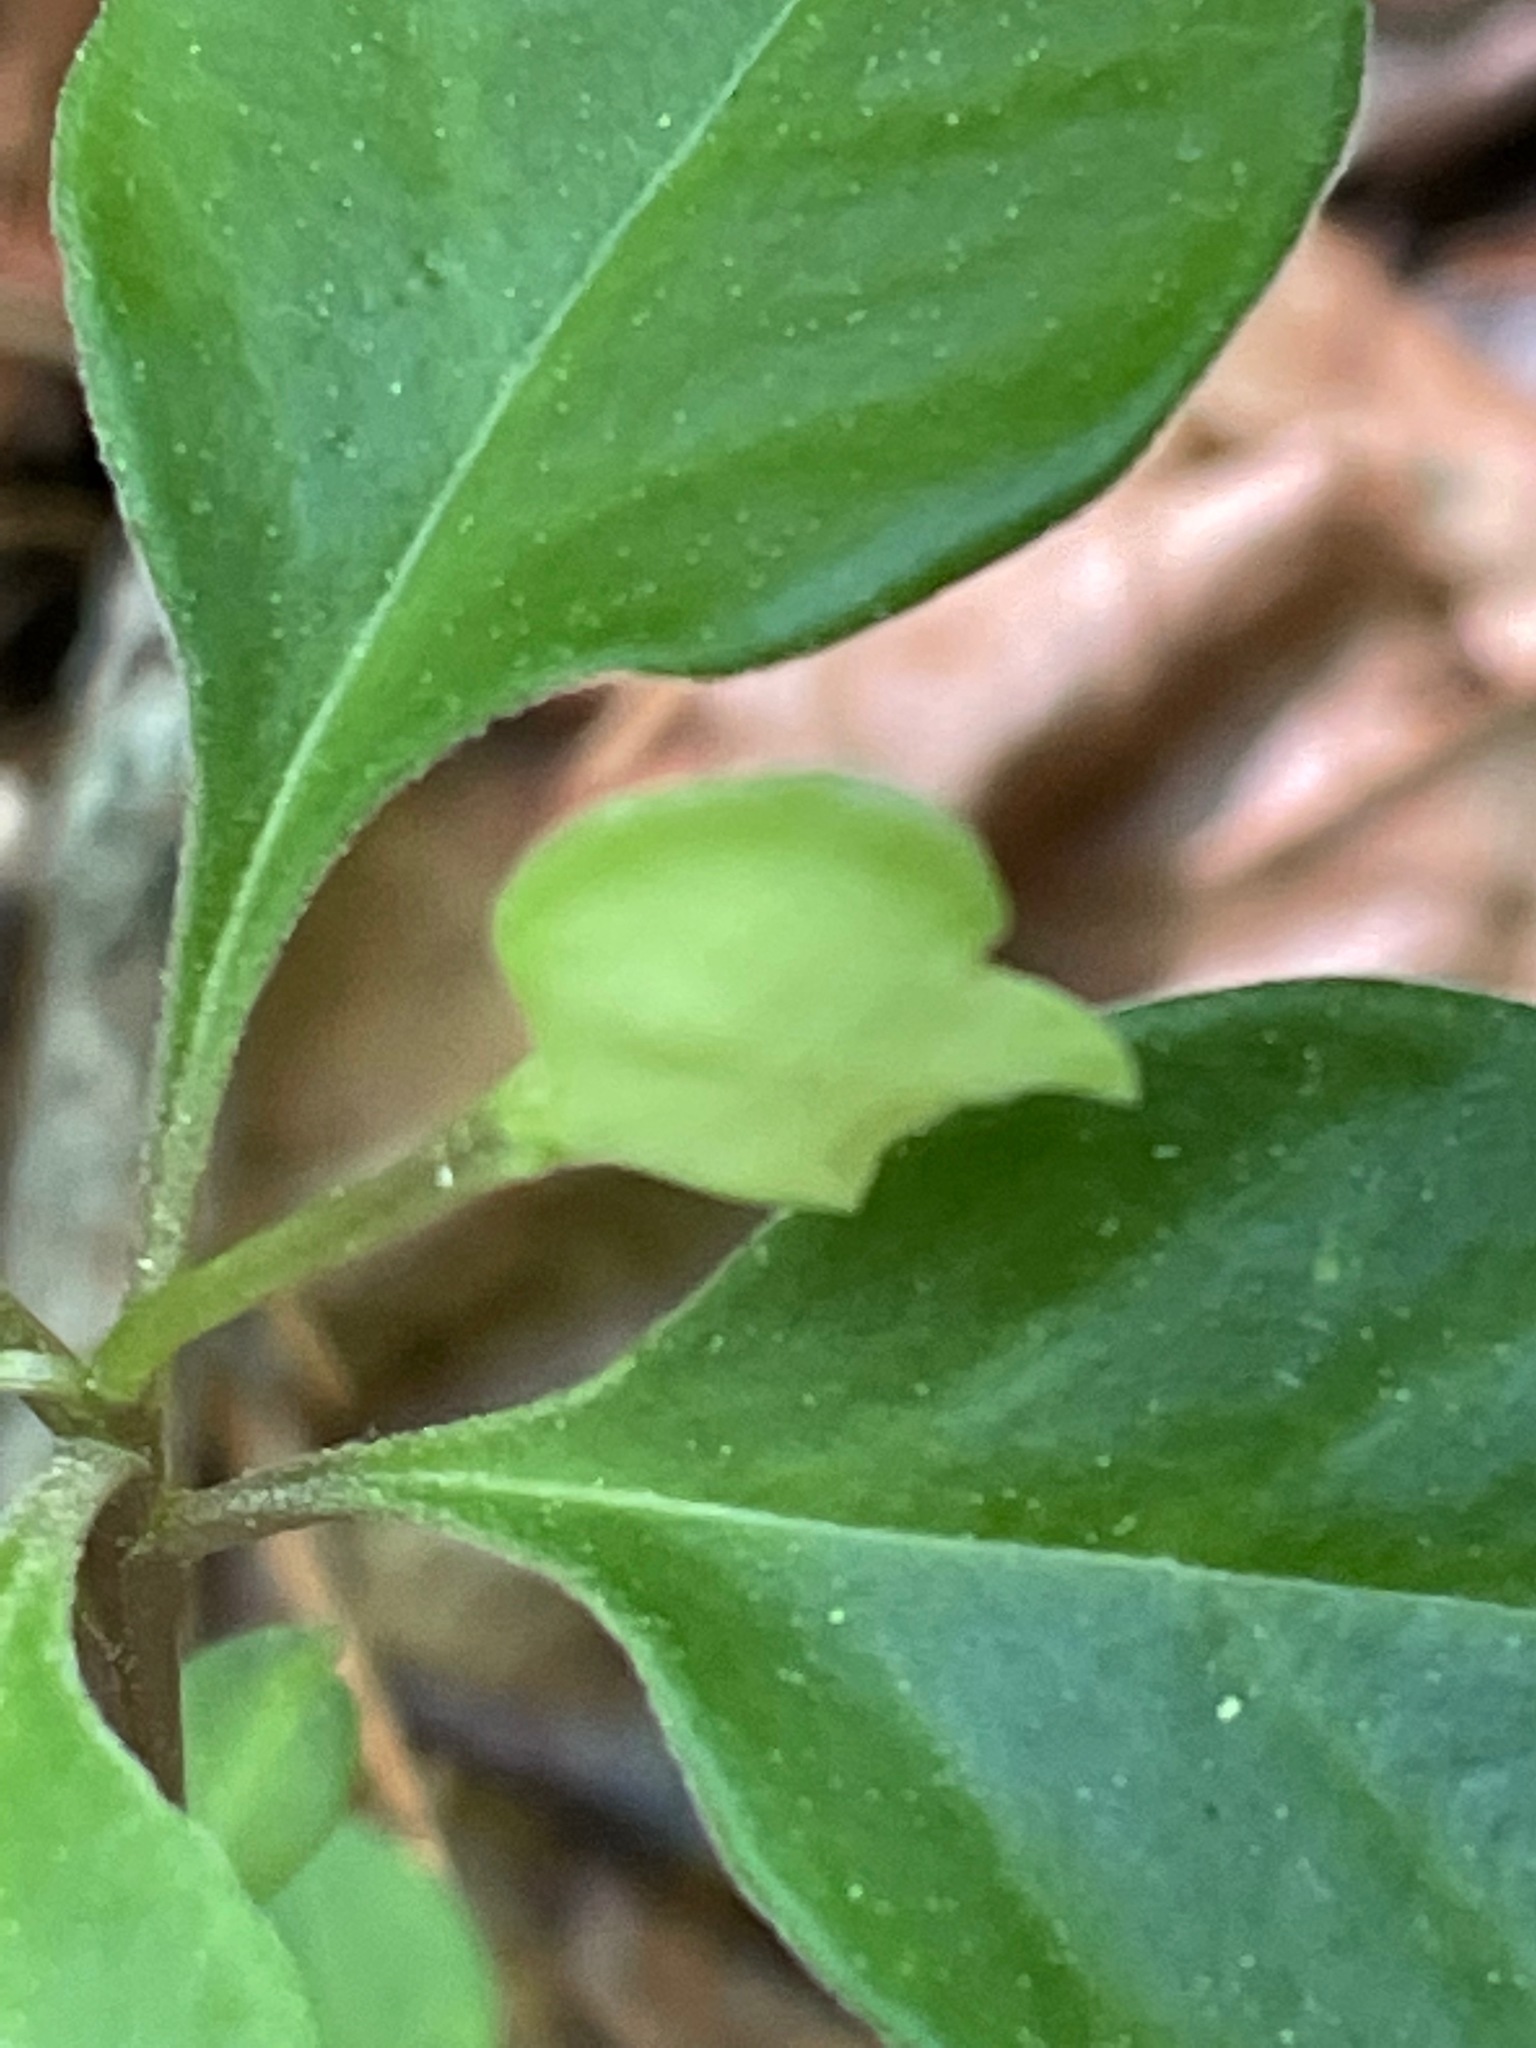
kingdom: Plantae
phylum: Tracheophyta
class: Magnoliopsida
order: Fabales
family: Polygalaceae
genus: Polygaloides
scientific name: Polygaloides paucifolia
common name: Bird-on-the-wing
